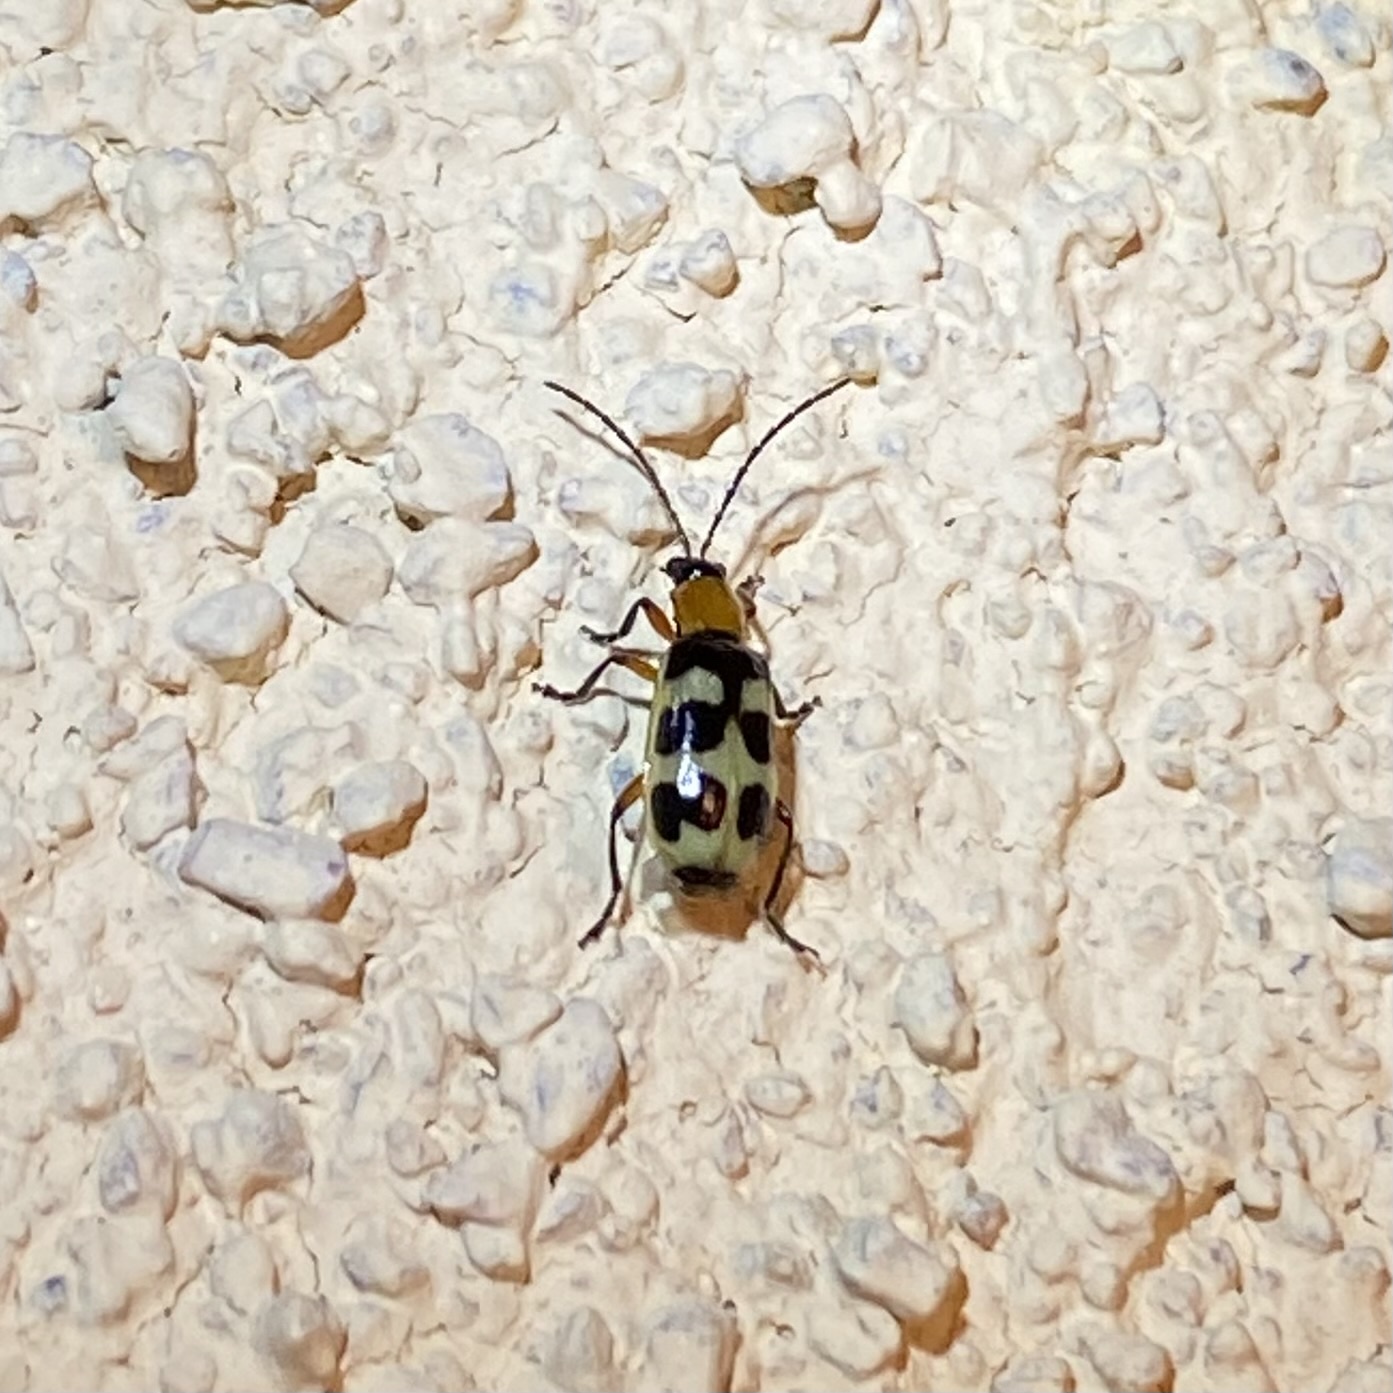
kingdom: Animalia
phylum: Arthropoda
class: Insecta
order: Coleoptera
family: Chrysomelidae
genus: Paranapiacaba
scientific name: Paranapiacaba tricincta
